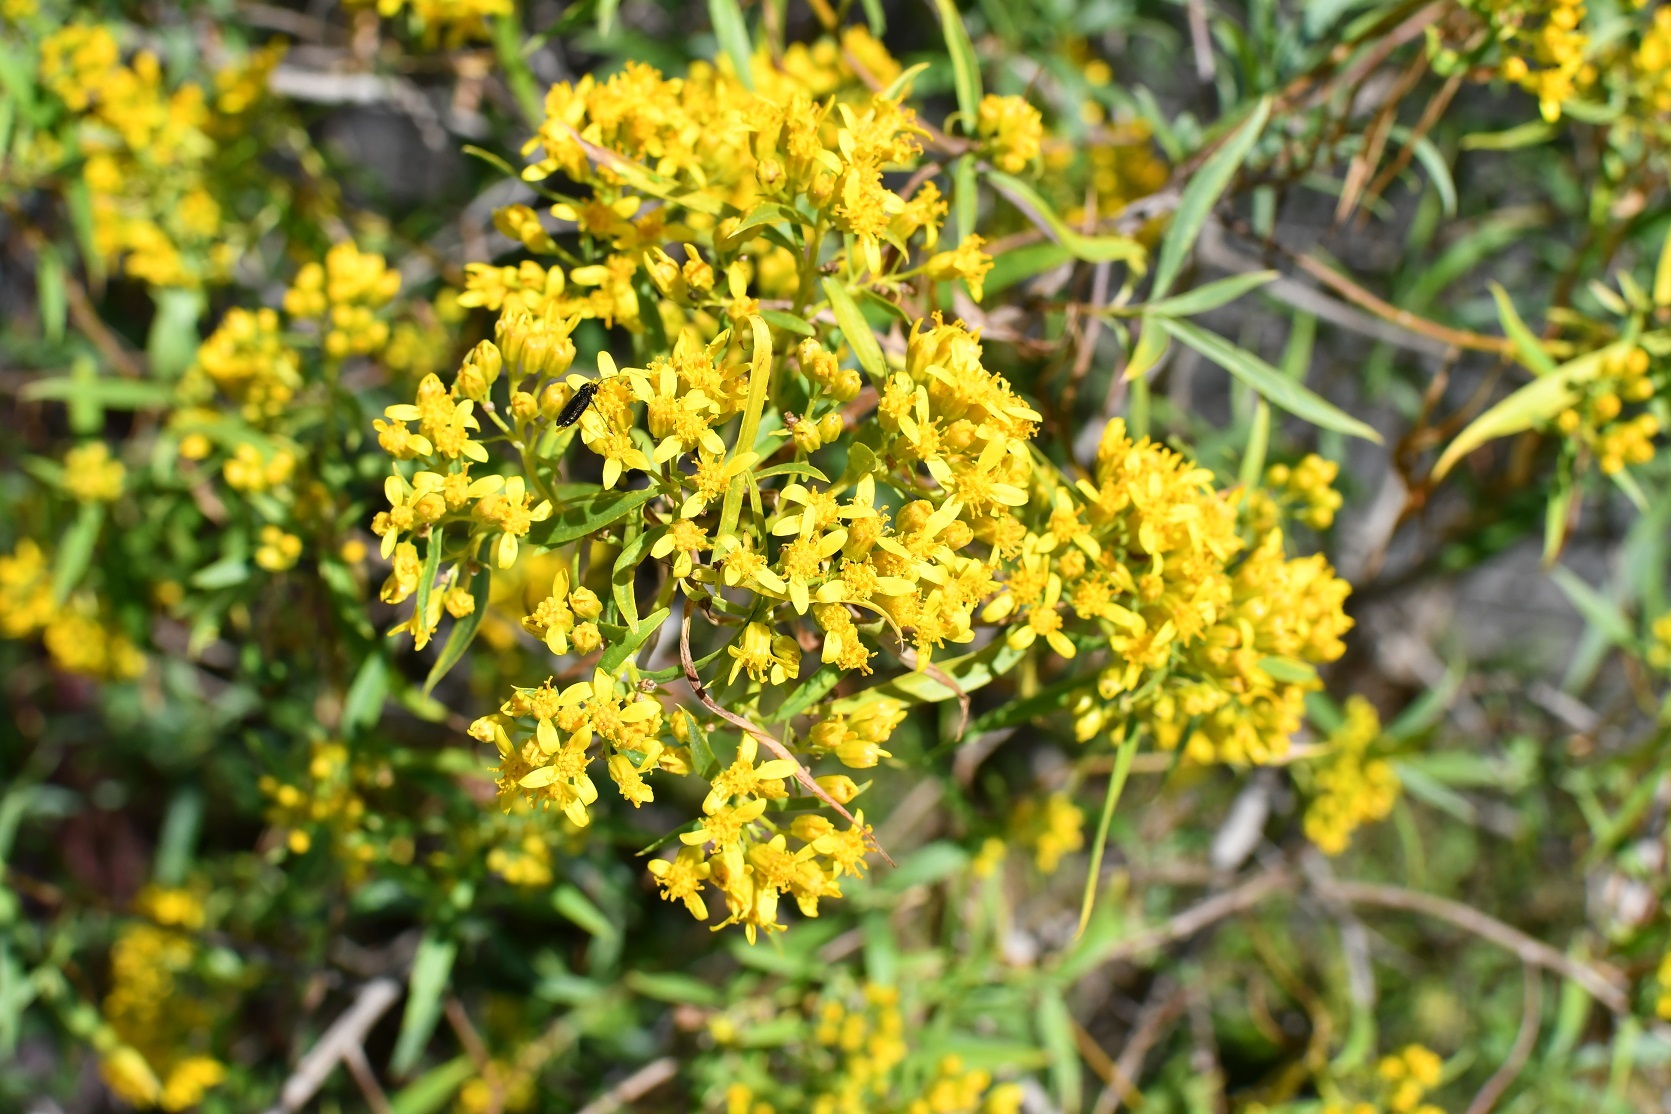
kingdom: Plantae
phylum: Tracheophyta
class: Magnoliopsida
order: Asterales
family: Asteraceae
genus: Barkleyanthus
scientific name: Barkleyanthus salicifolius
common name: Willow ragwort
